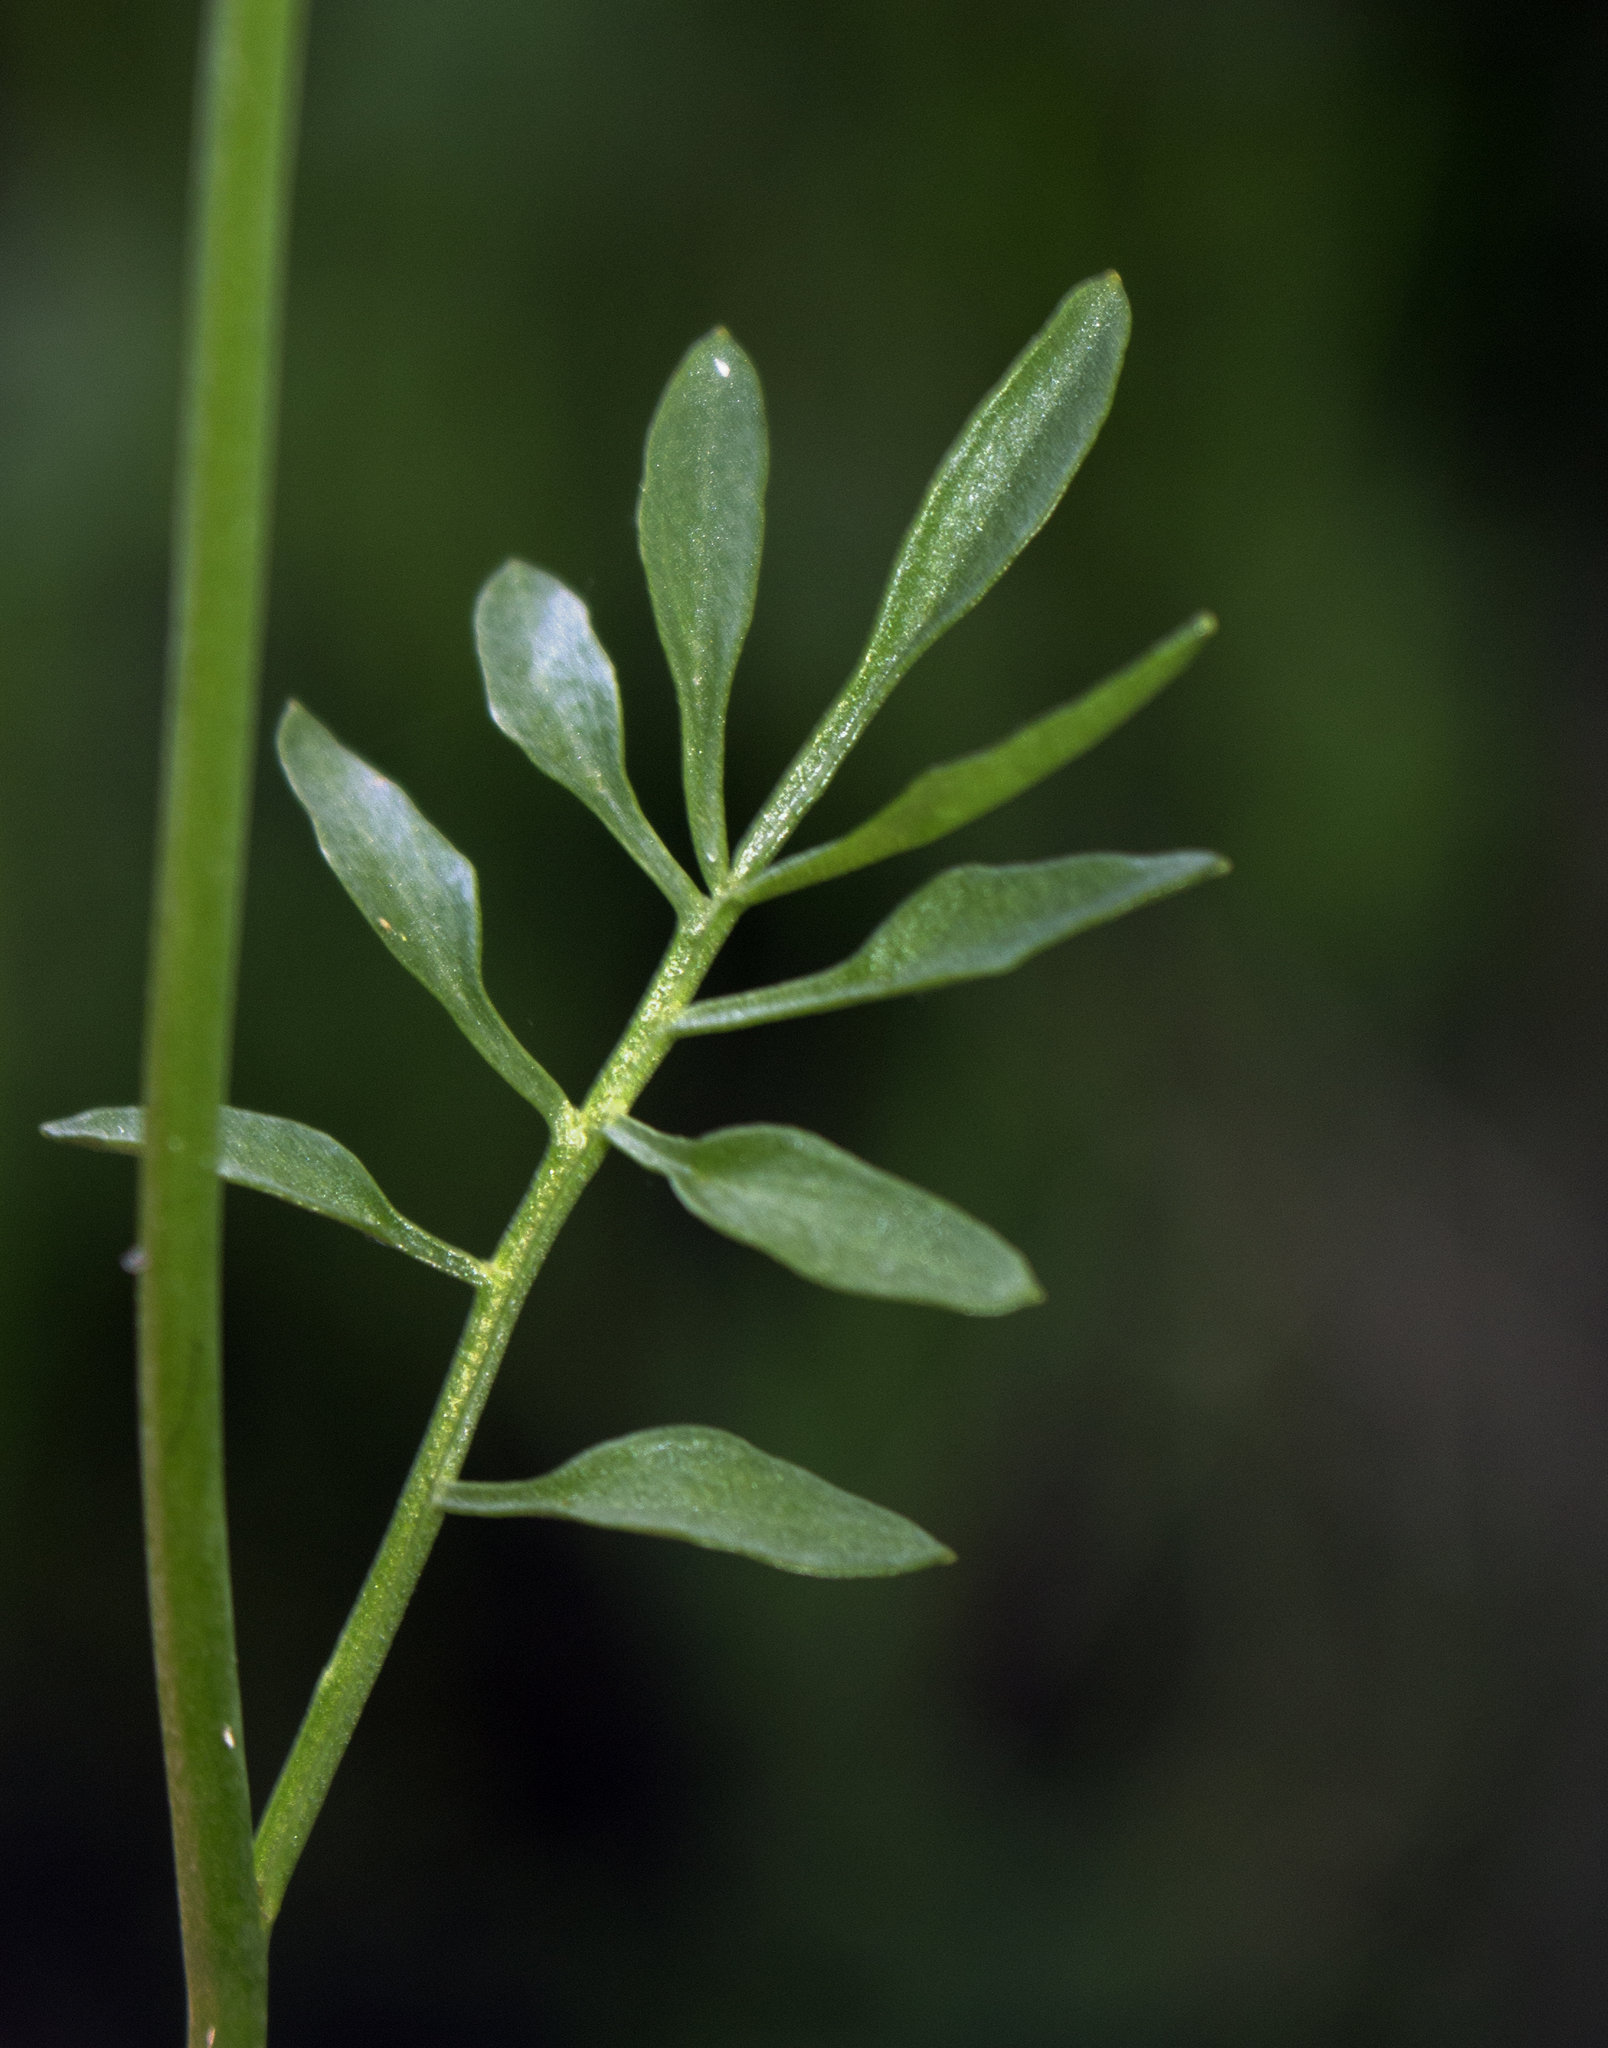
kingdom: Plantae
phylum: Tracheophyta
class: Magnoliopsida
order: Brassicales
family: Brassicaceae
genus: Cardamine
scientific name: Cardamine pratensis
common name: Cuckoo flower
